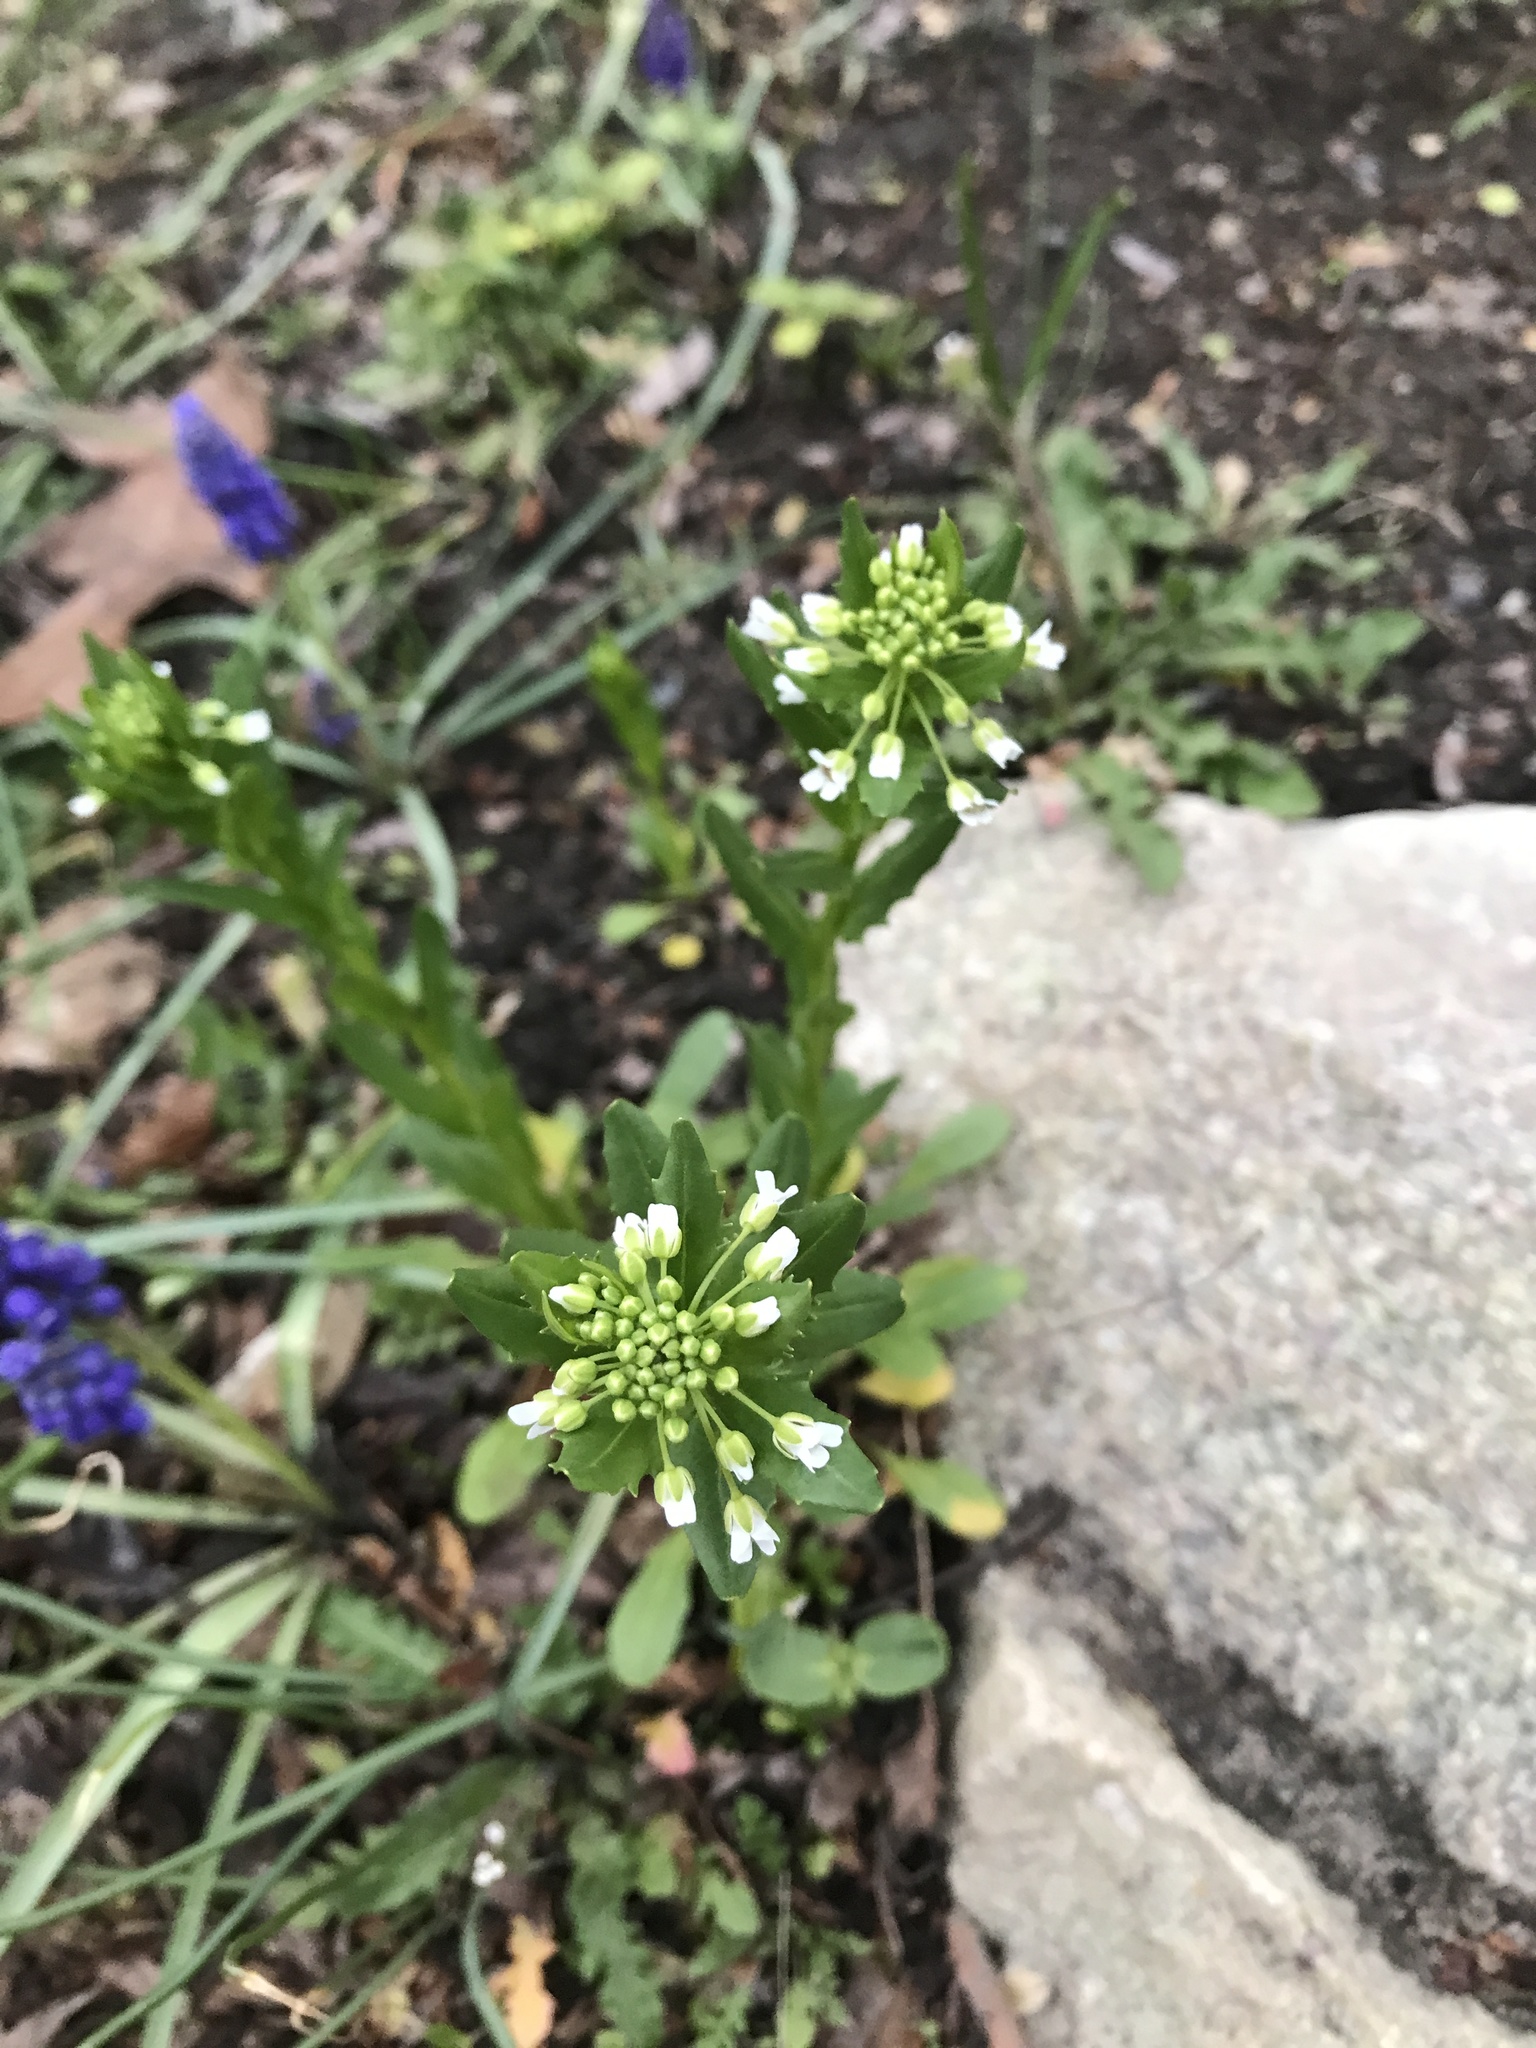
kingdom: Plantae
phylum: Tracheophyta
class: Magnoliopsida
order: Brassicales
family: Brassicaceae
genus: Thlaspi
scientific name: Thlaspi arvense
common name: Field pennycress
